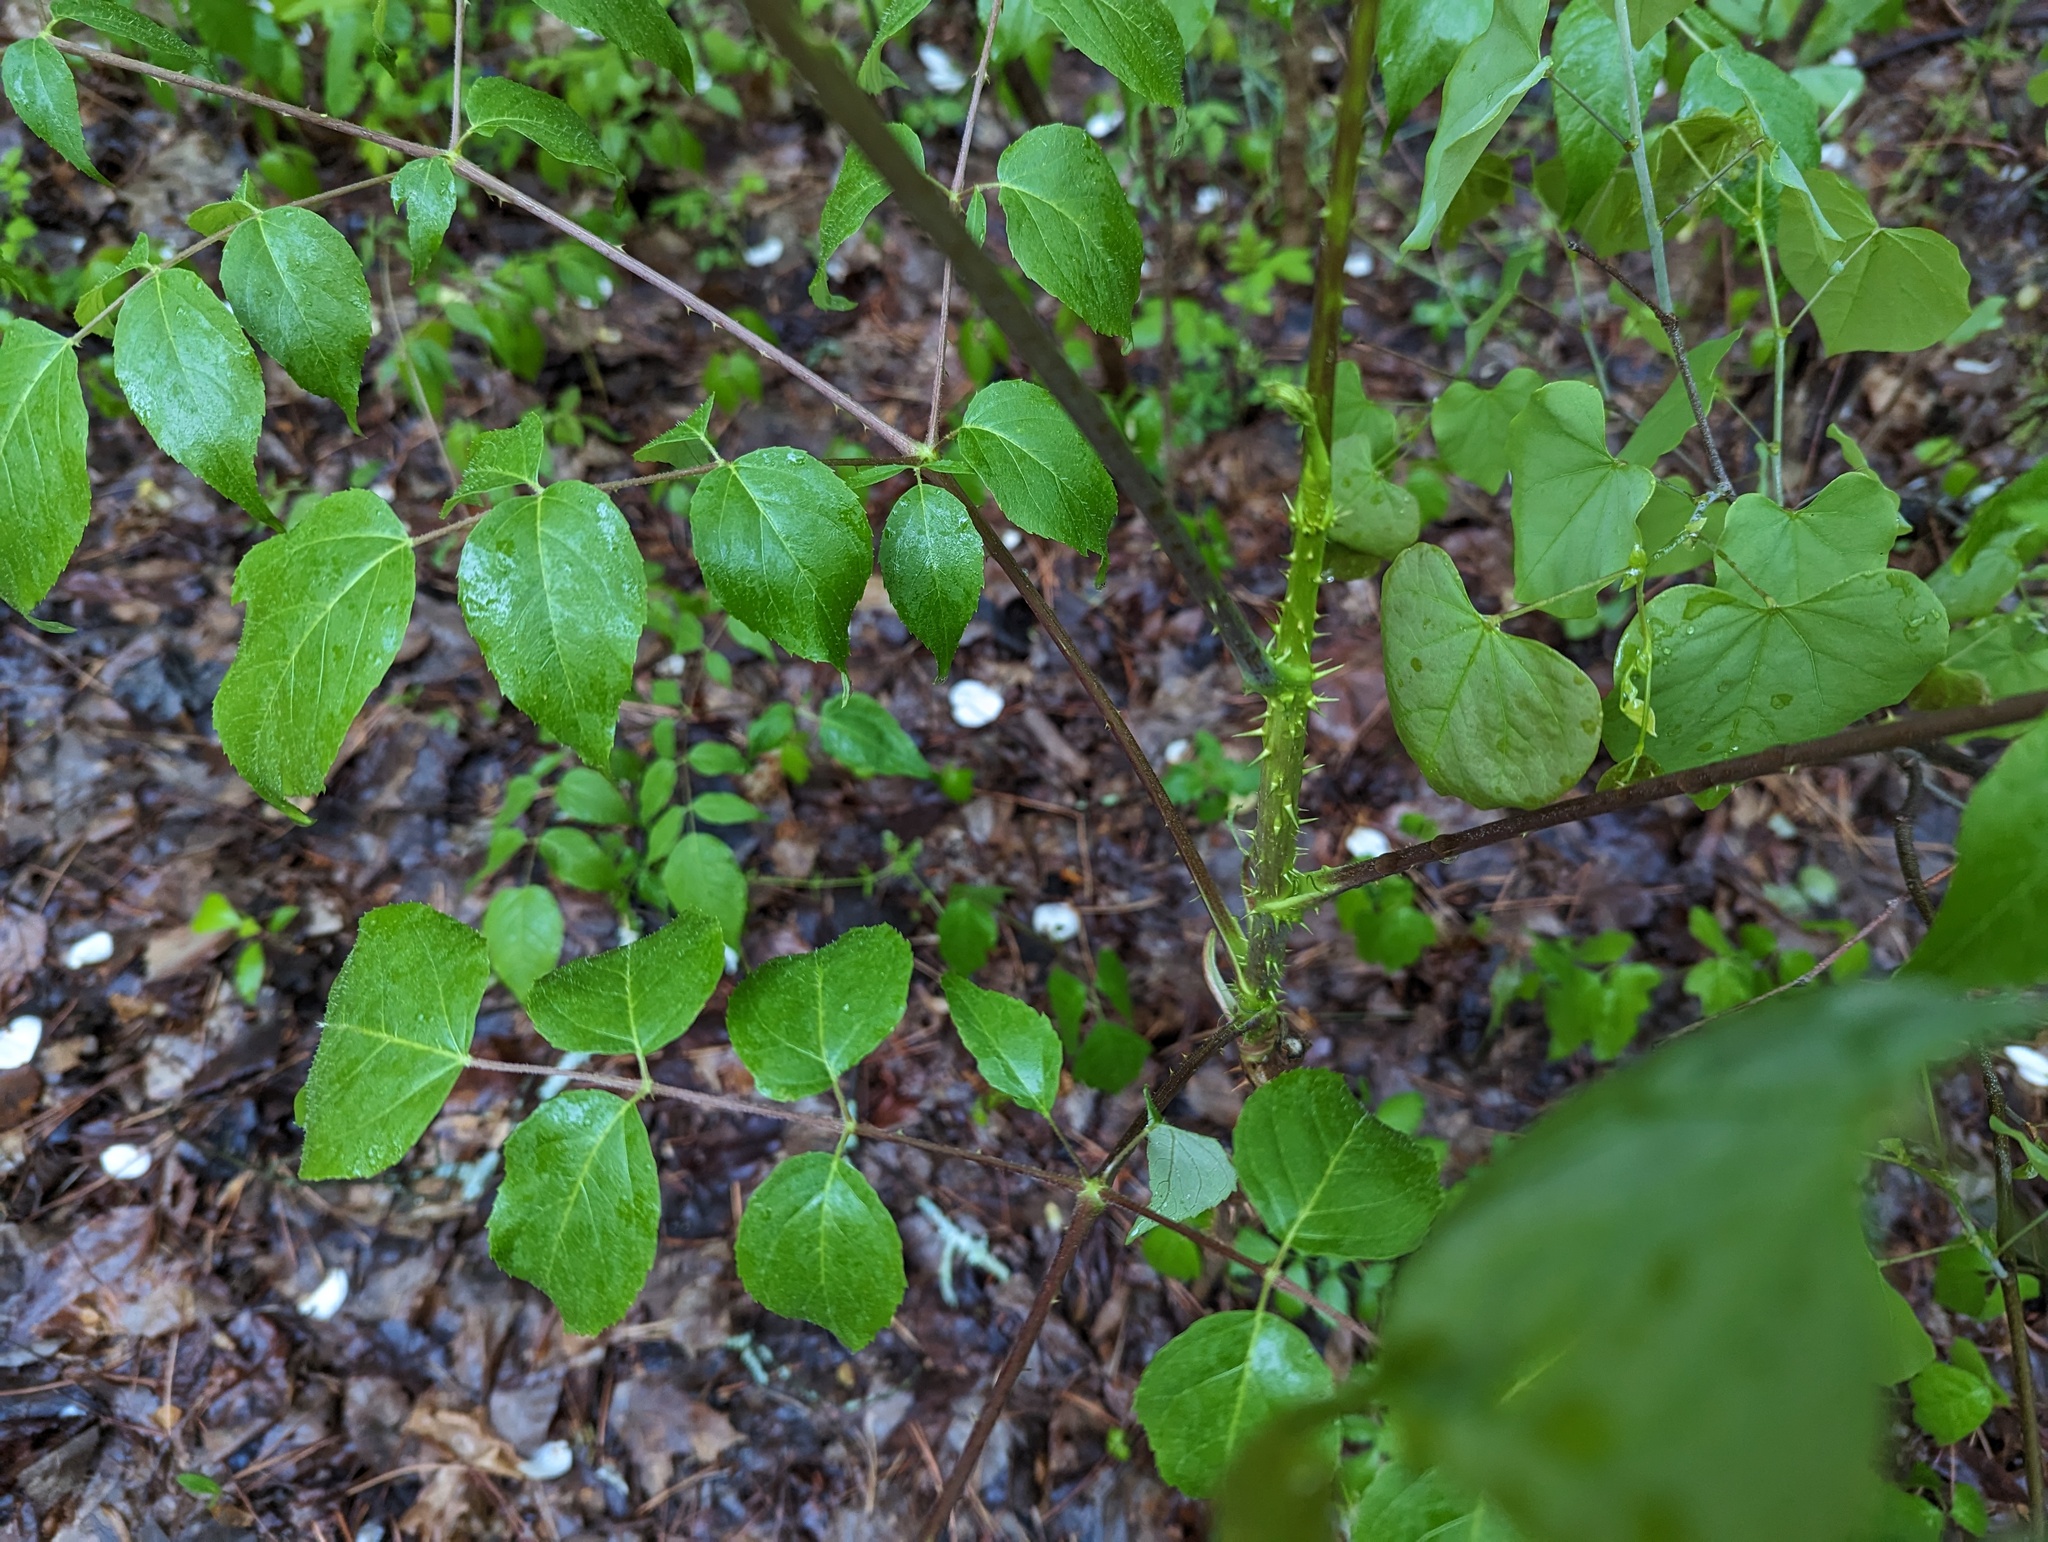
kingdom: Plantae
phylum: Tracheophyta
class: Magnoliopsida
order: Apiales
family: Araliaceae
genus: Aralia
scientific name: Aralia spinosa
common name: Hercules'-club
